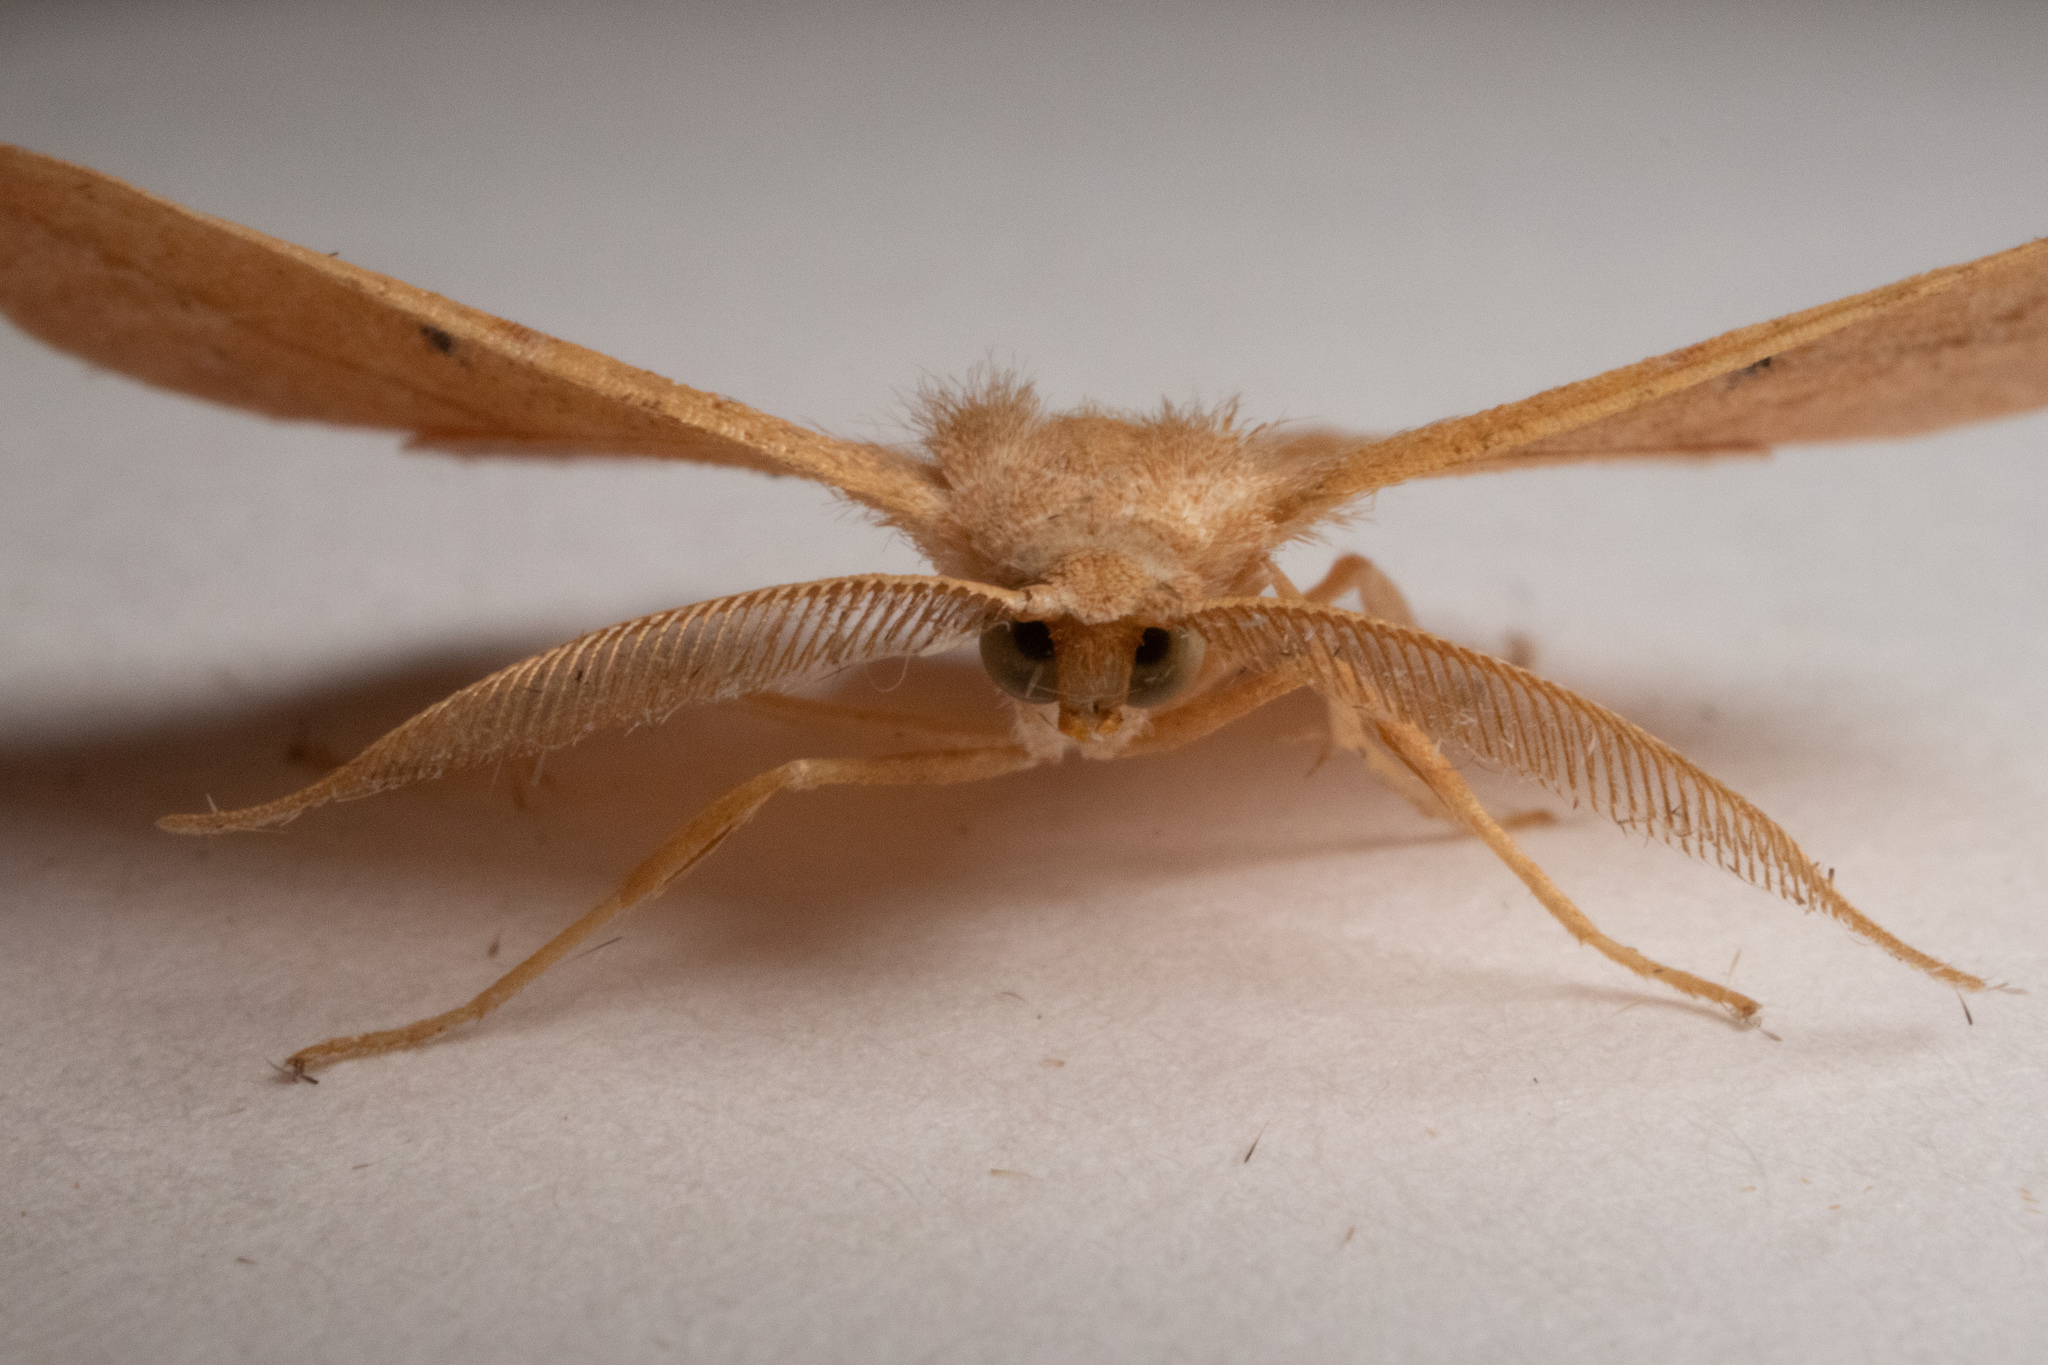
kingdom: Animalia
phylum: Arthropoda
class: Insecta
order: Lepidoptera
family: Geometridae
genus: Patalene
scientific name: Patalene olyzonaria
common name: Juniper geometer moth
